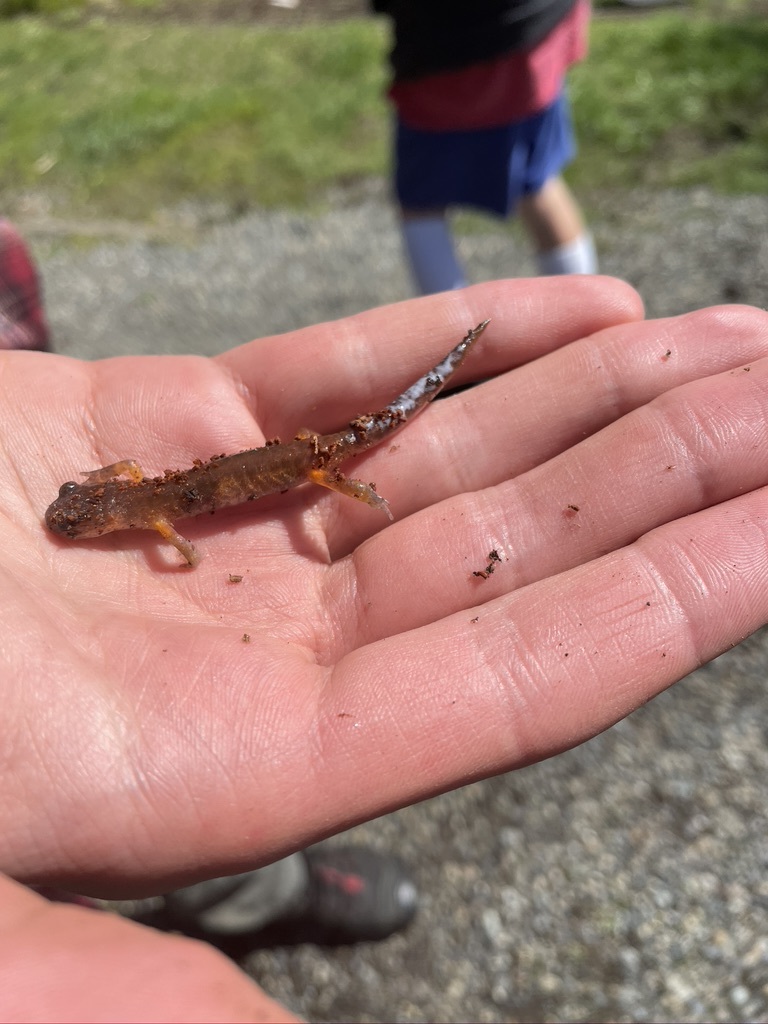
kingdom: Animalia
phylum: Chordata
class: Amphibia
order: Caudata
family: Plethodontidae
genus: Ensatina
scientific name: Ensatina eschscholtzii
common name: Ensatina
